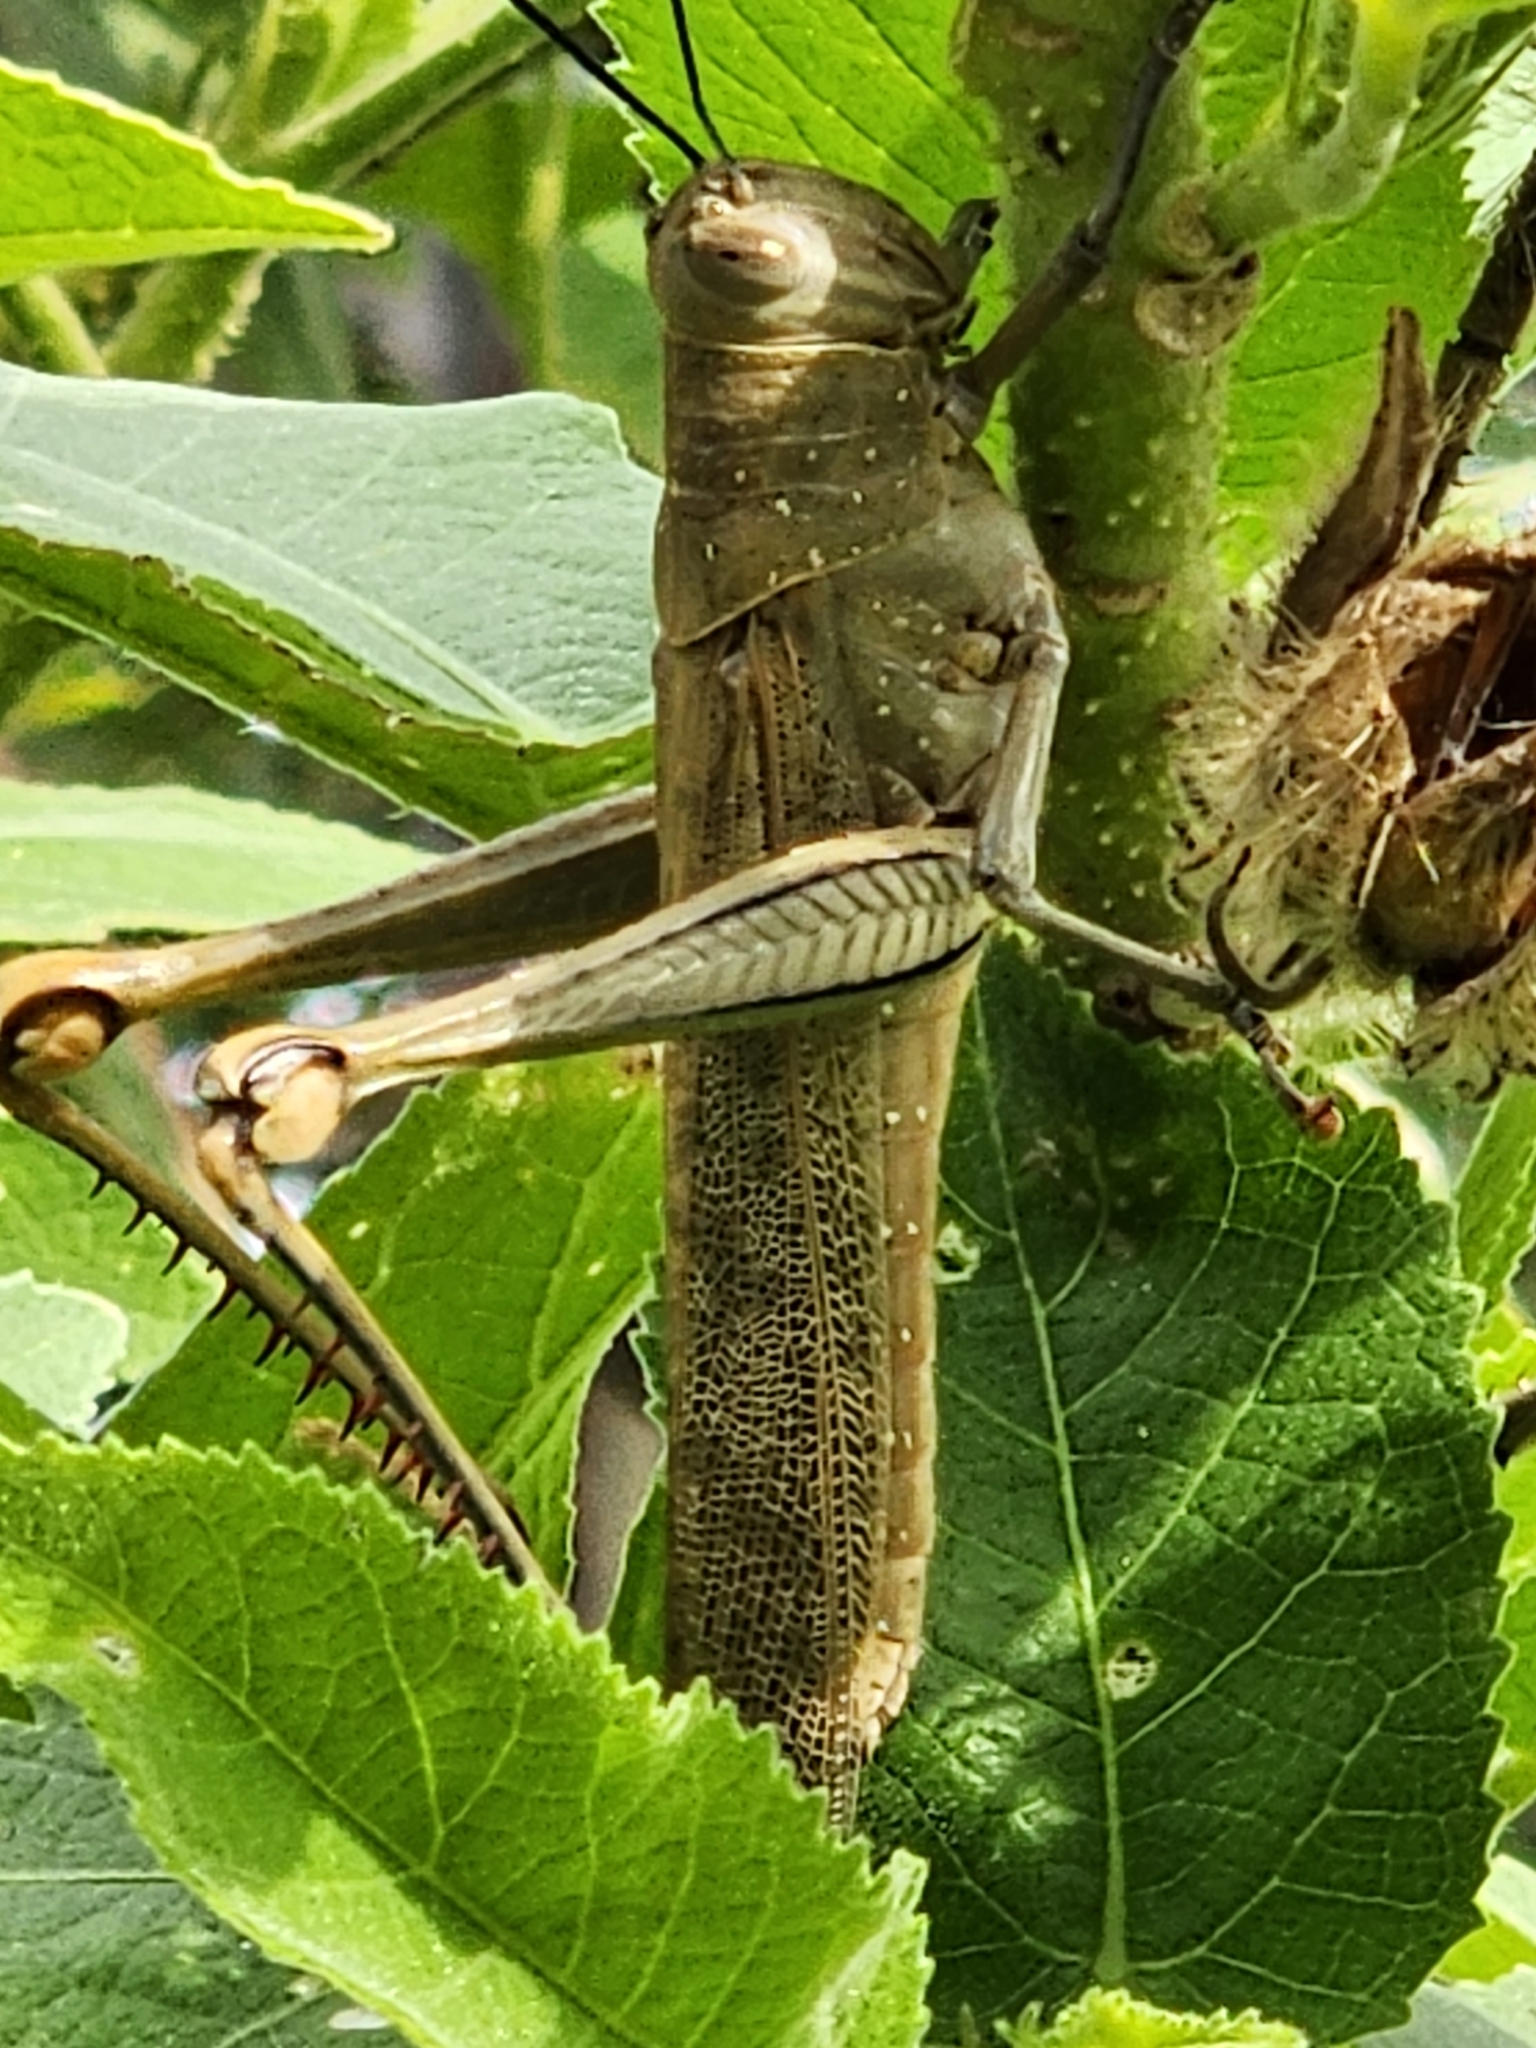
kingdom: Animalia
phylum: Arthropoda
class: Insecta
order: Orthoptera
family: Acrididae
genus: Valanga
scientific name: Valanga irregularis
